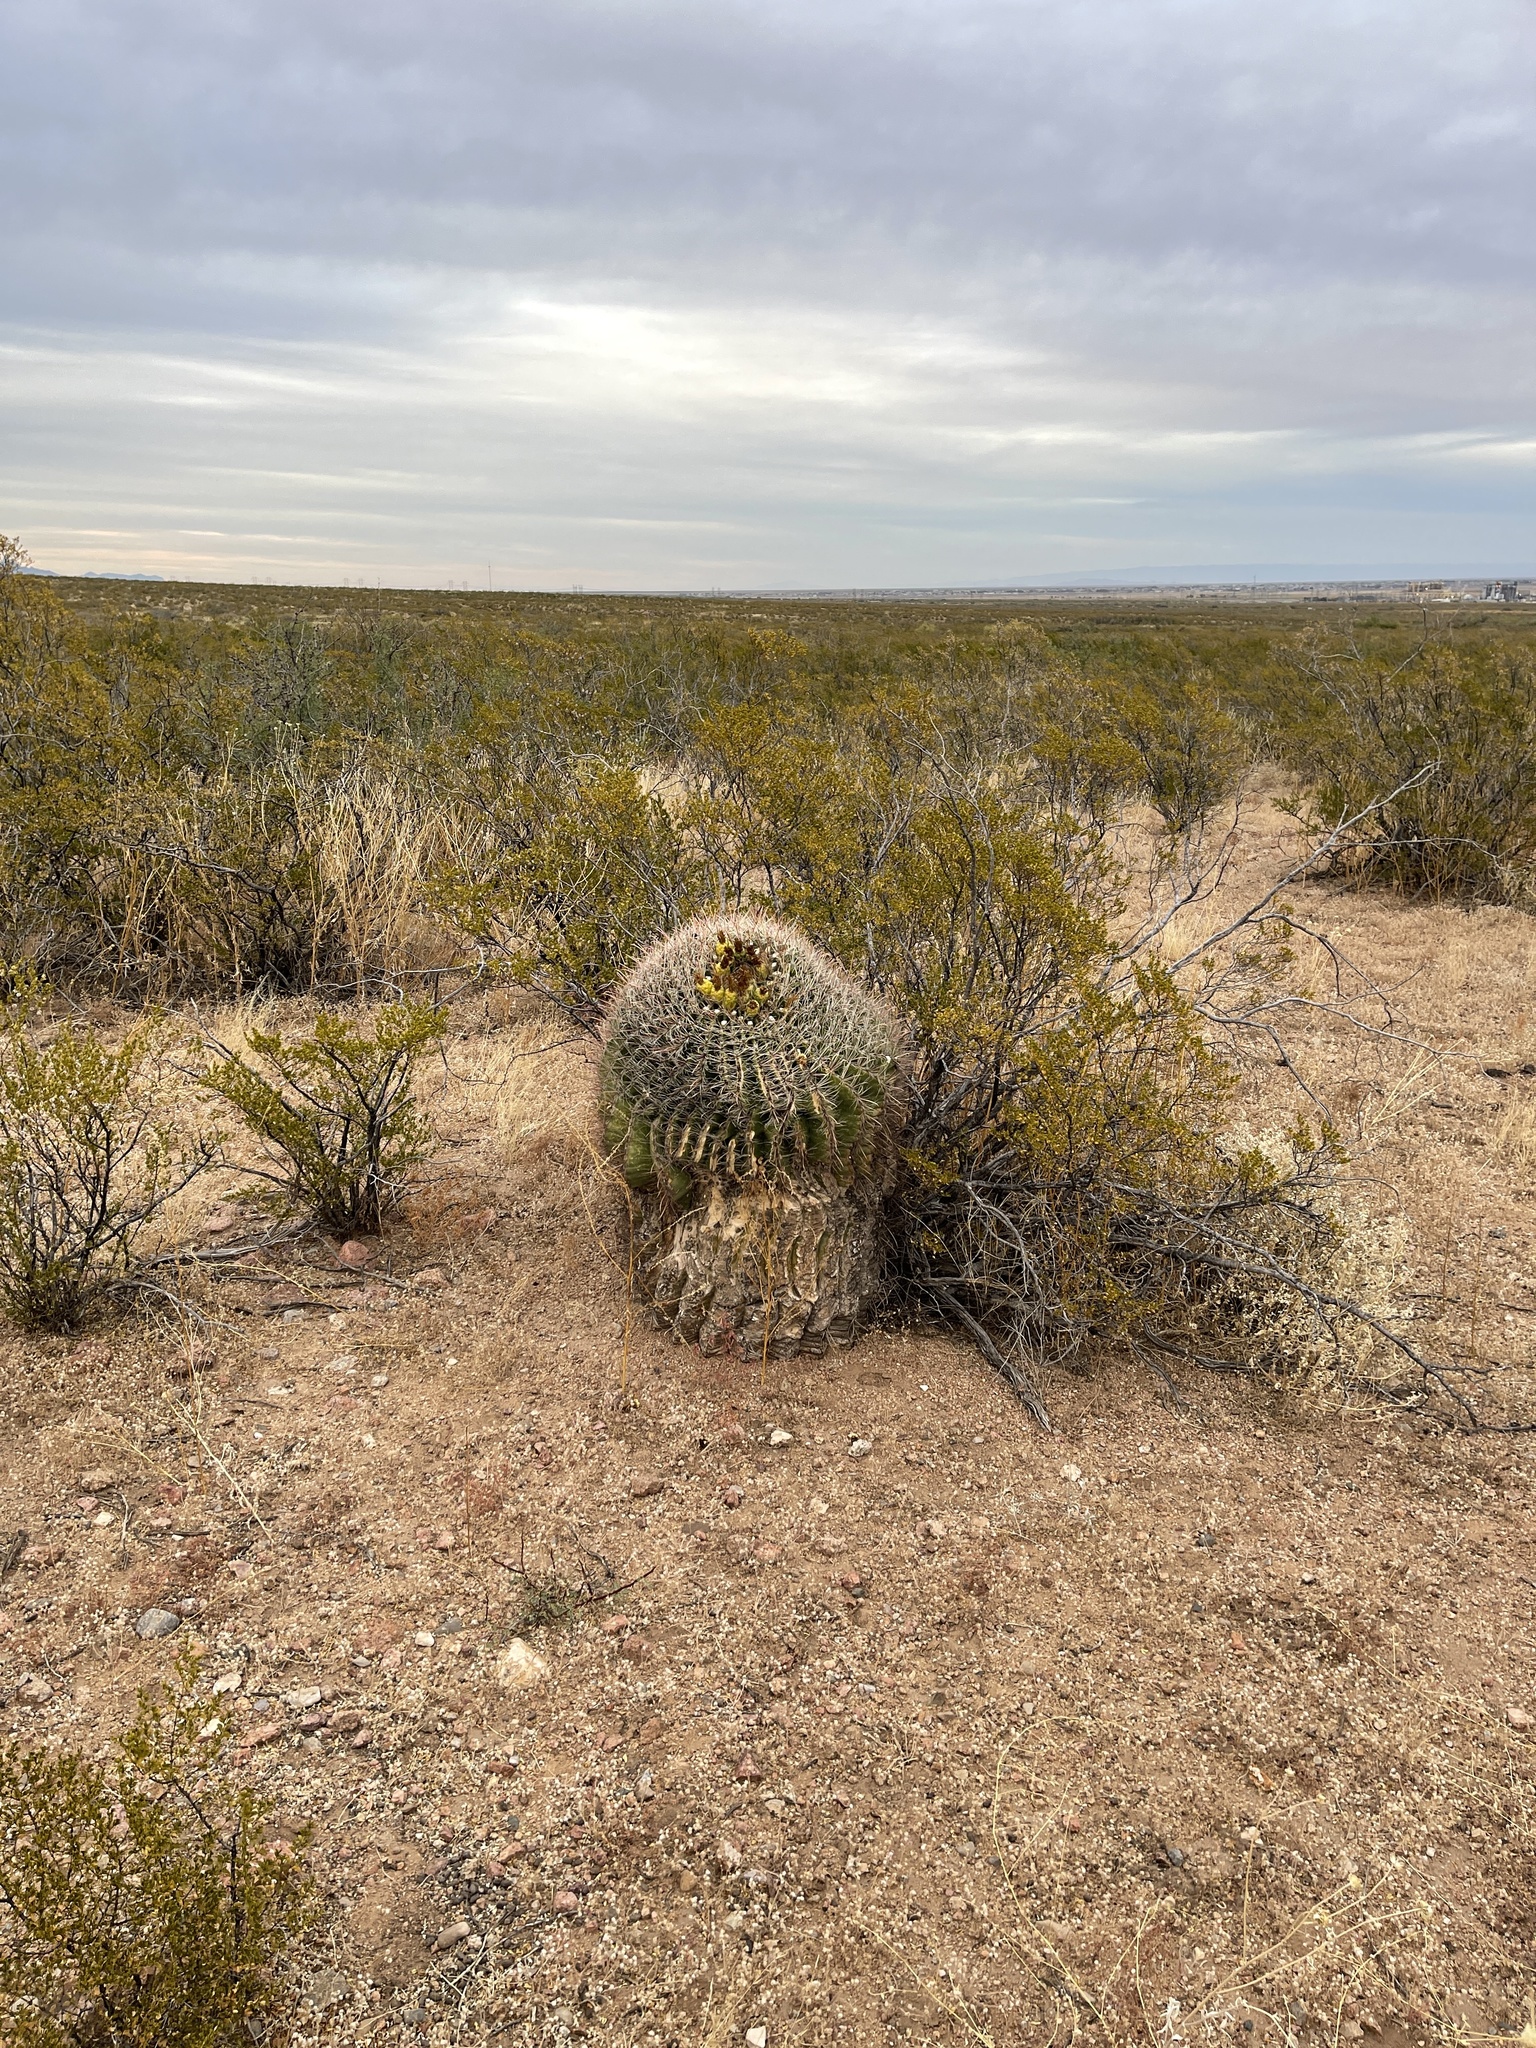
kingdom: Plantae
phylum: Tracheophyta
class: Magnoliopsida
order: Caryophyllales
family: Cactaceae
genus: Ferocactus
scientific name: Ferocactus wislizeni
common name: Candy barrel cactus
